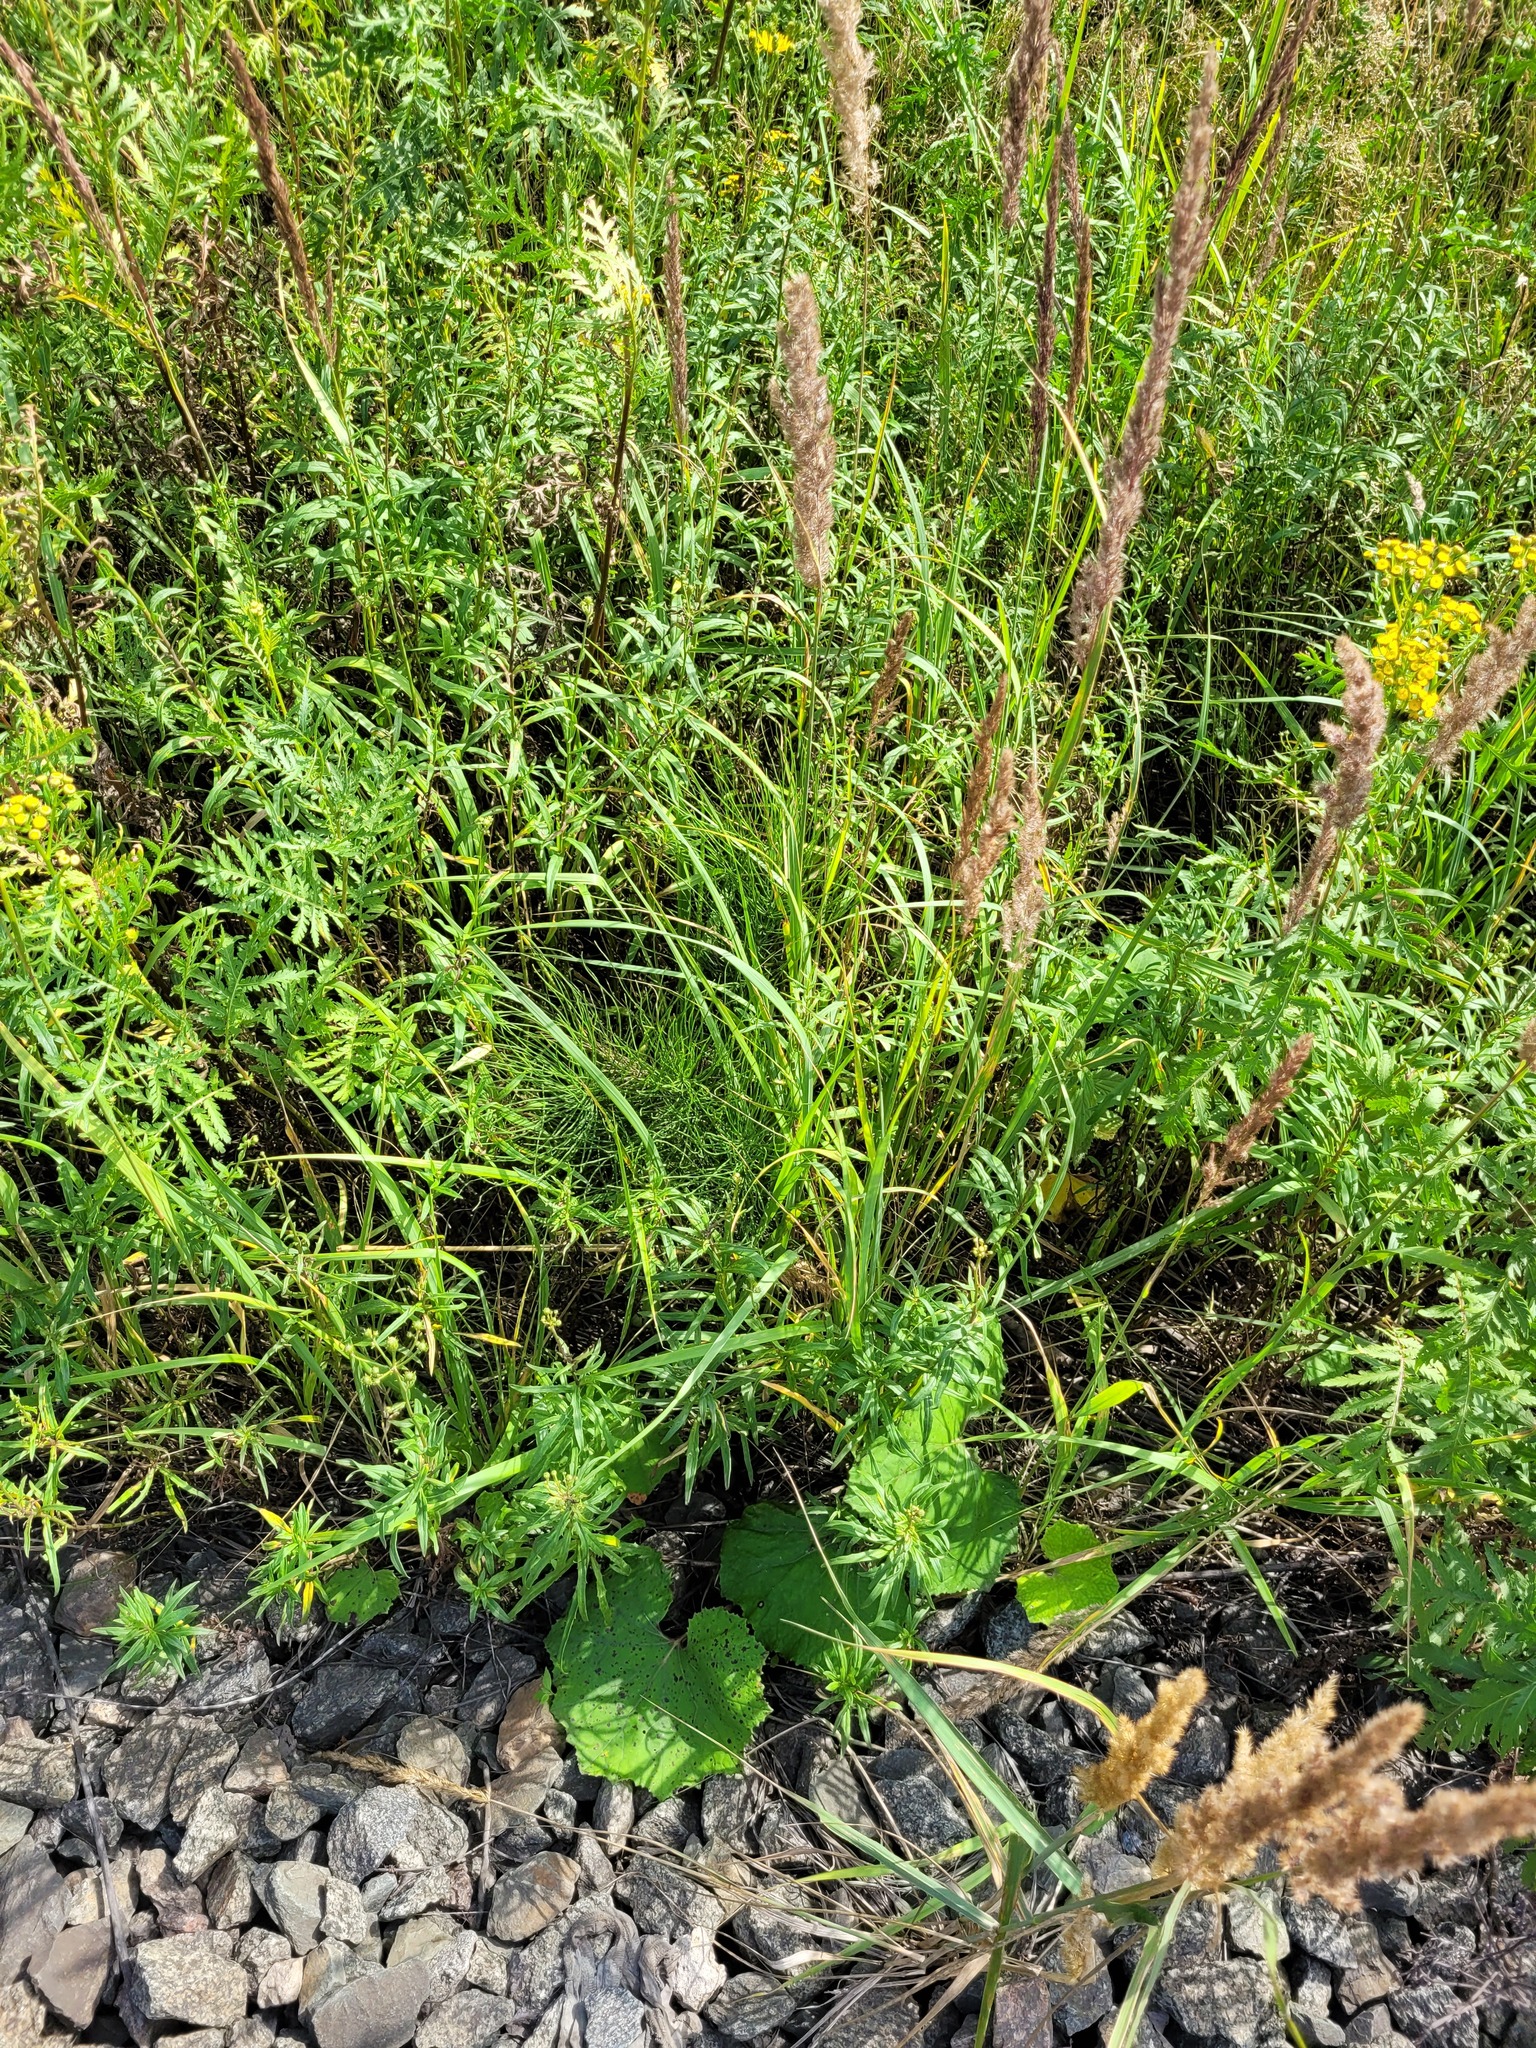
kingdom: Plantae
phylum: Tracheophyta
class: Polypodiopsida
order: Equisetales
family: Equisetaceae
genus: Equisetum
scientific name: Equisetum arvense
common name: Field horsetail
